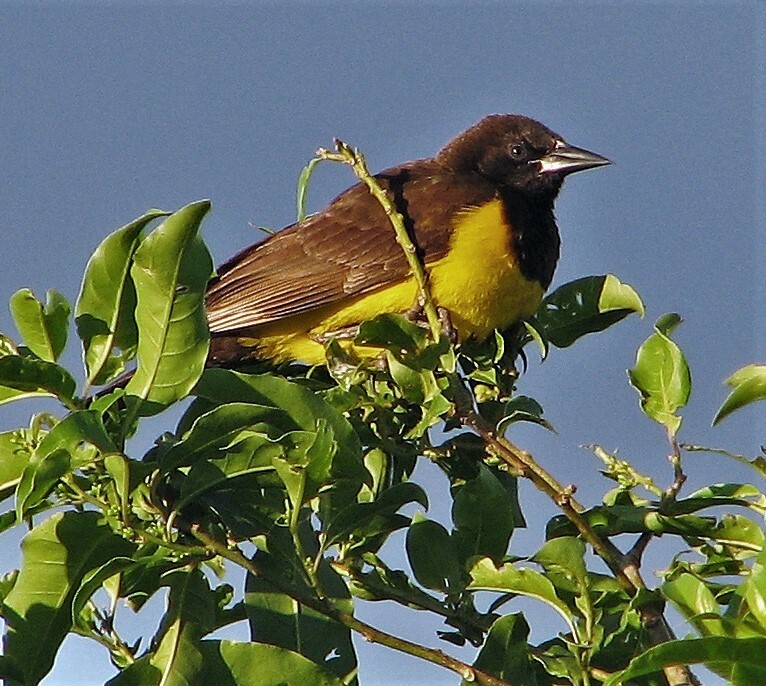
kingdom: Animalia
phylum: Chordata
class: Aves
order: Passeriformes
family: Icteridae
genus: Pseudoleistes
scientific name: Pseudoleistes guirahuro
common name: Yellow-rumped marshbird
